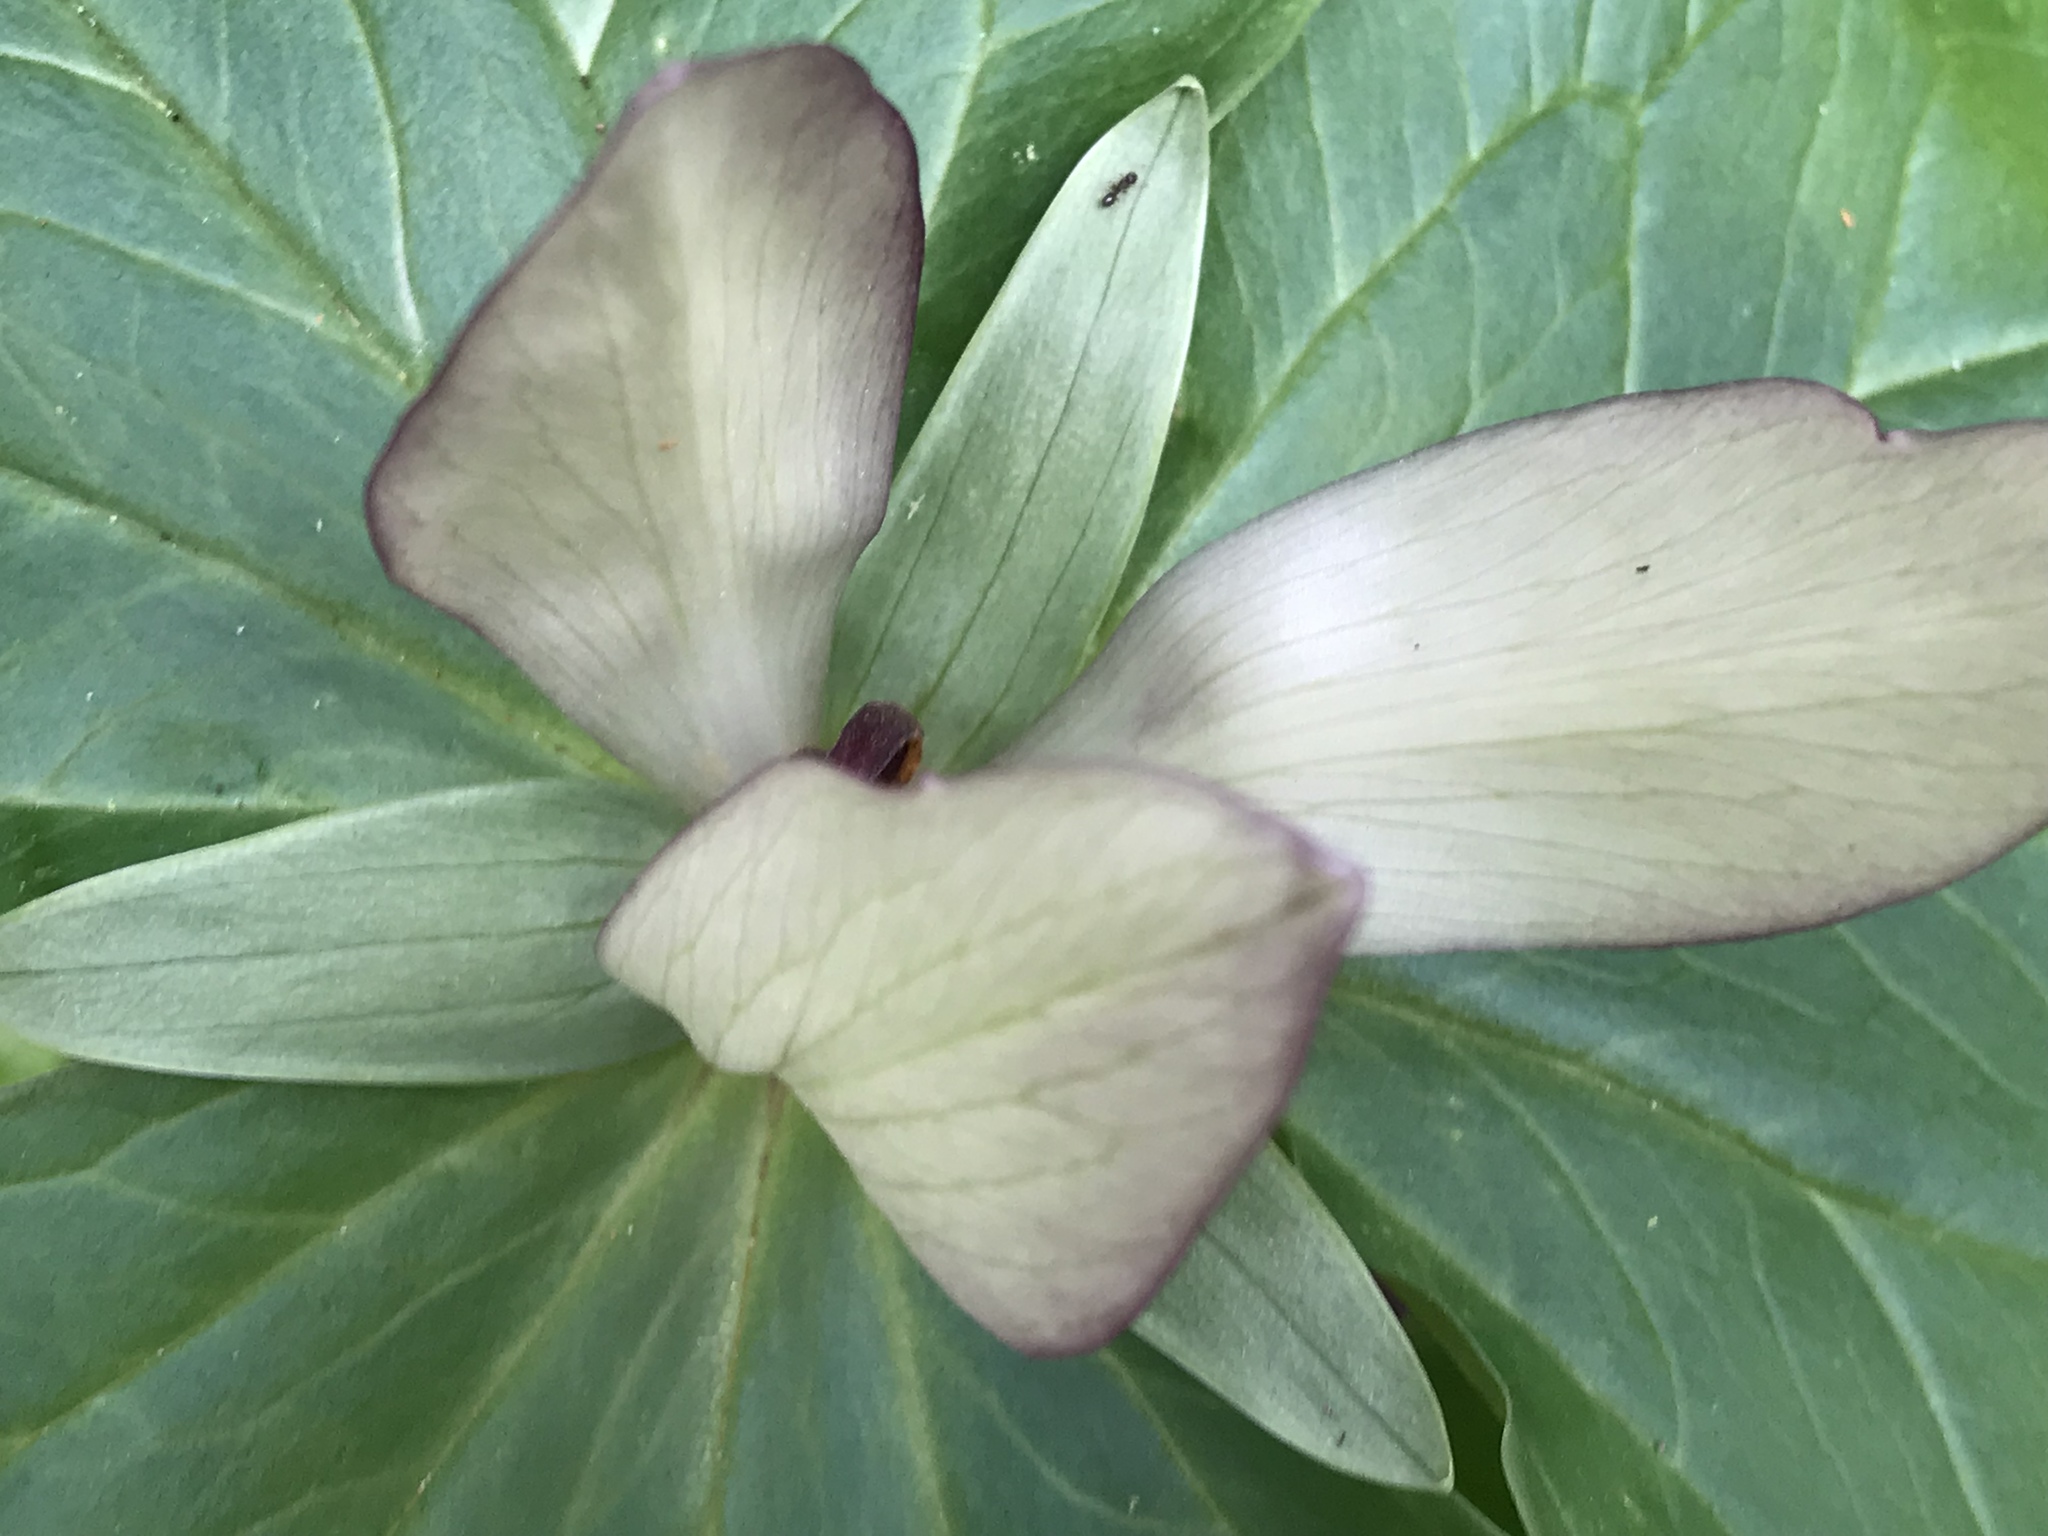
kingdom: Plantae
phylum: Tracheophyta
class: Liliopsida
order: Liliales
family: Melanthiaceae
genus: Trillium
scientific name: Trillium chloropetalum
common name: Giant trillium
